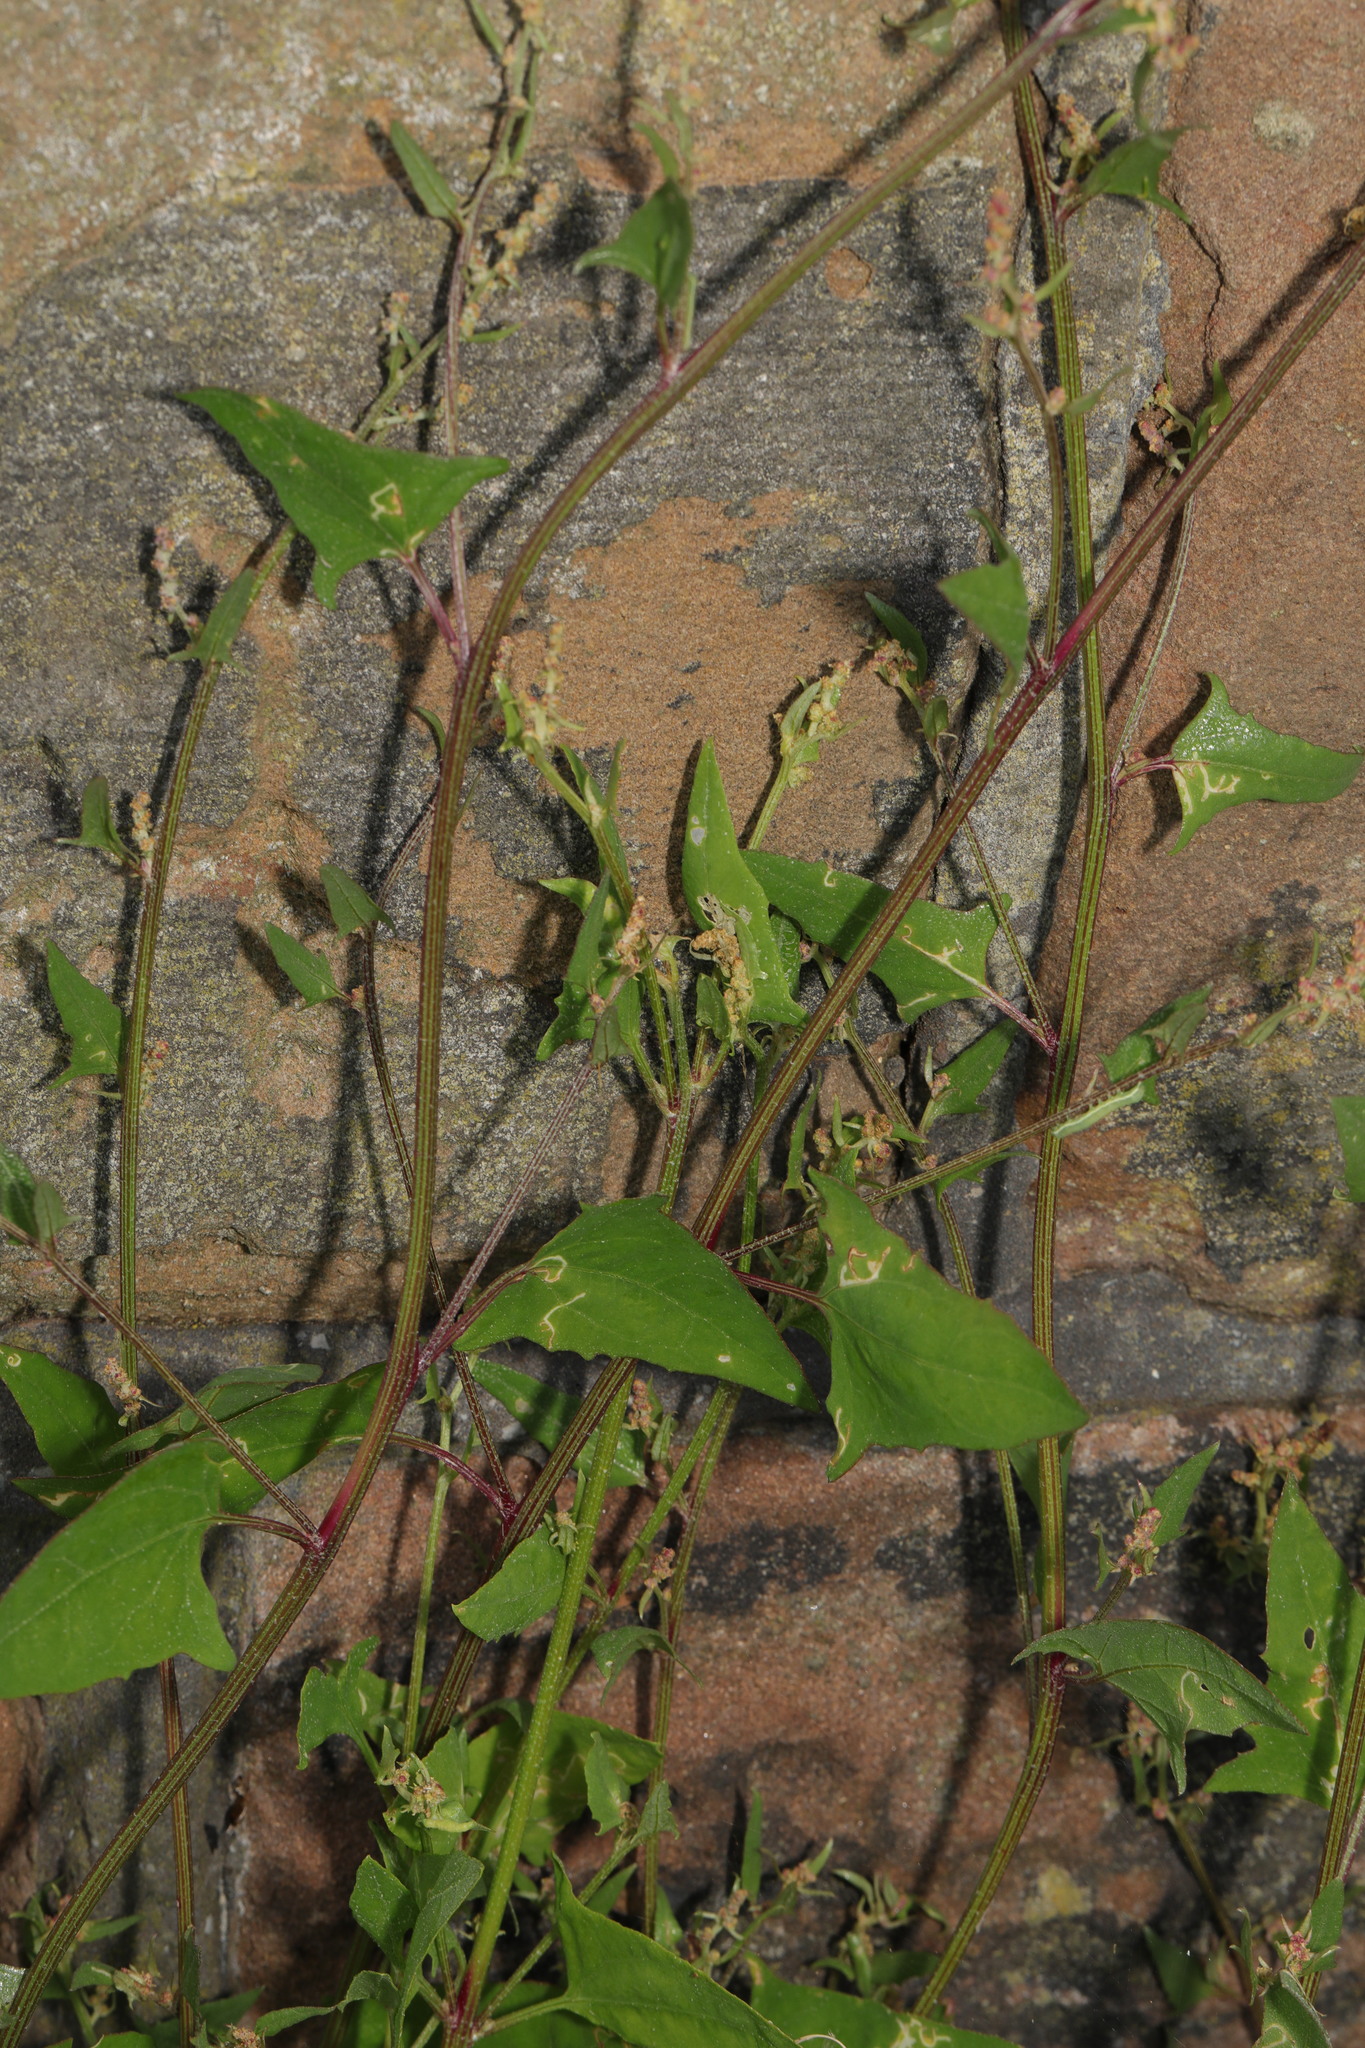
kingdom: Plantae
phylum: Tracheophyta
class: Magnoliopsida
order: Caryophyllales
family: Amaranthaceae
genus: Atriplex
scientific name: Atriplex prostrata
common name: Spear-leaved orache
